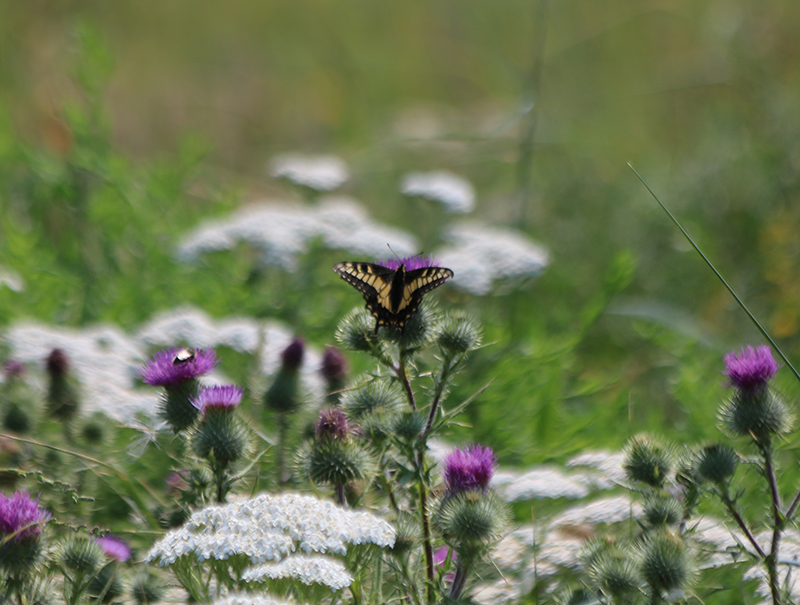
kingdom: Animalia
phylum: Arthropoda
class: Insecta
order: Lepidoptera
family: Papilionidae
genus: Papilio
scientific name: Papilio zelicaon
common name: Anise swallowtail
